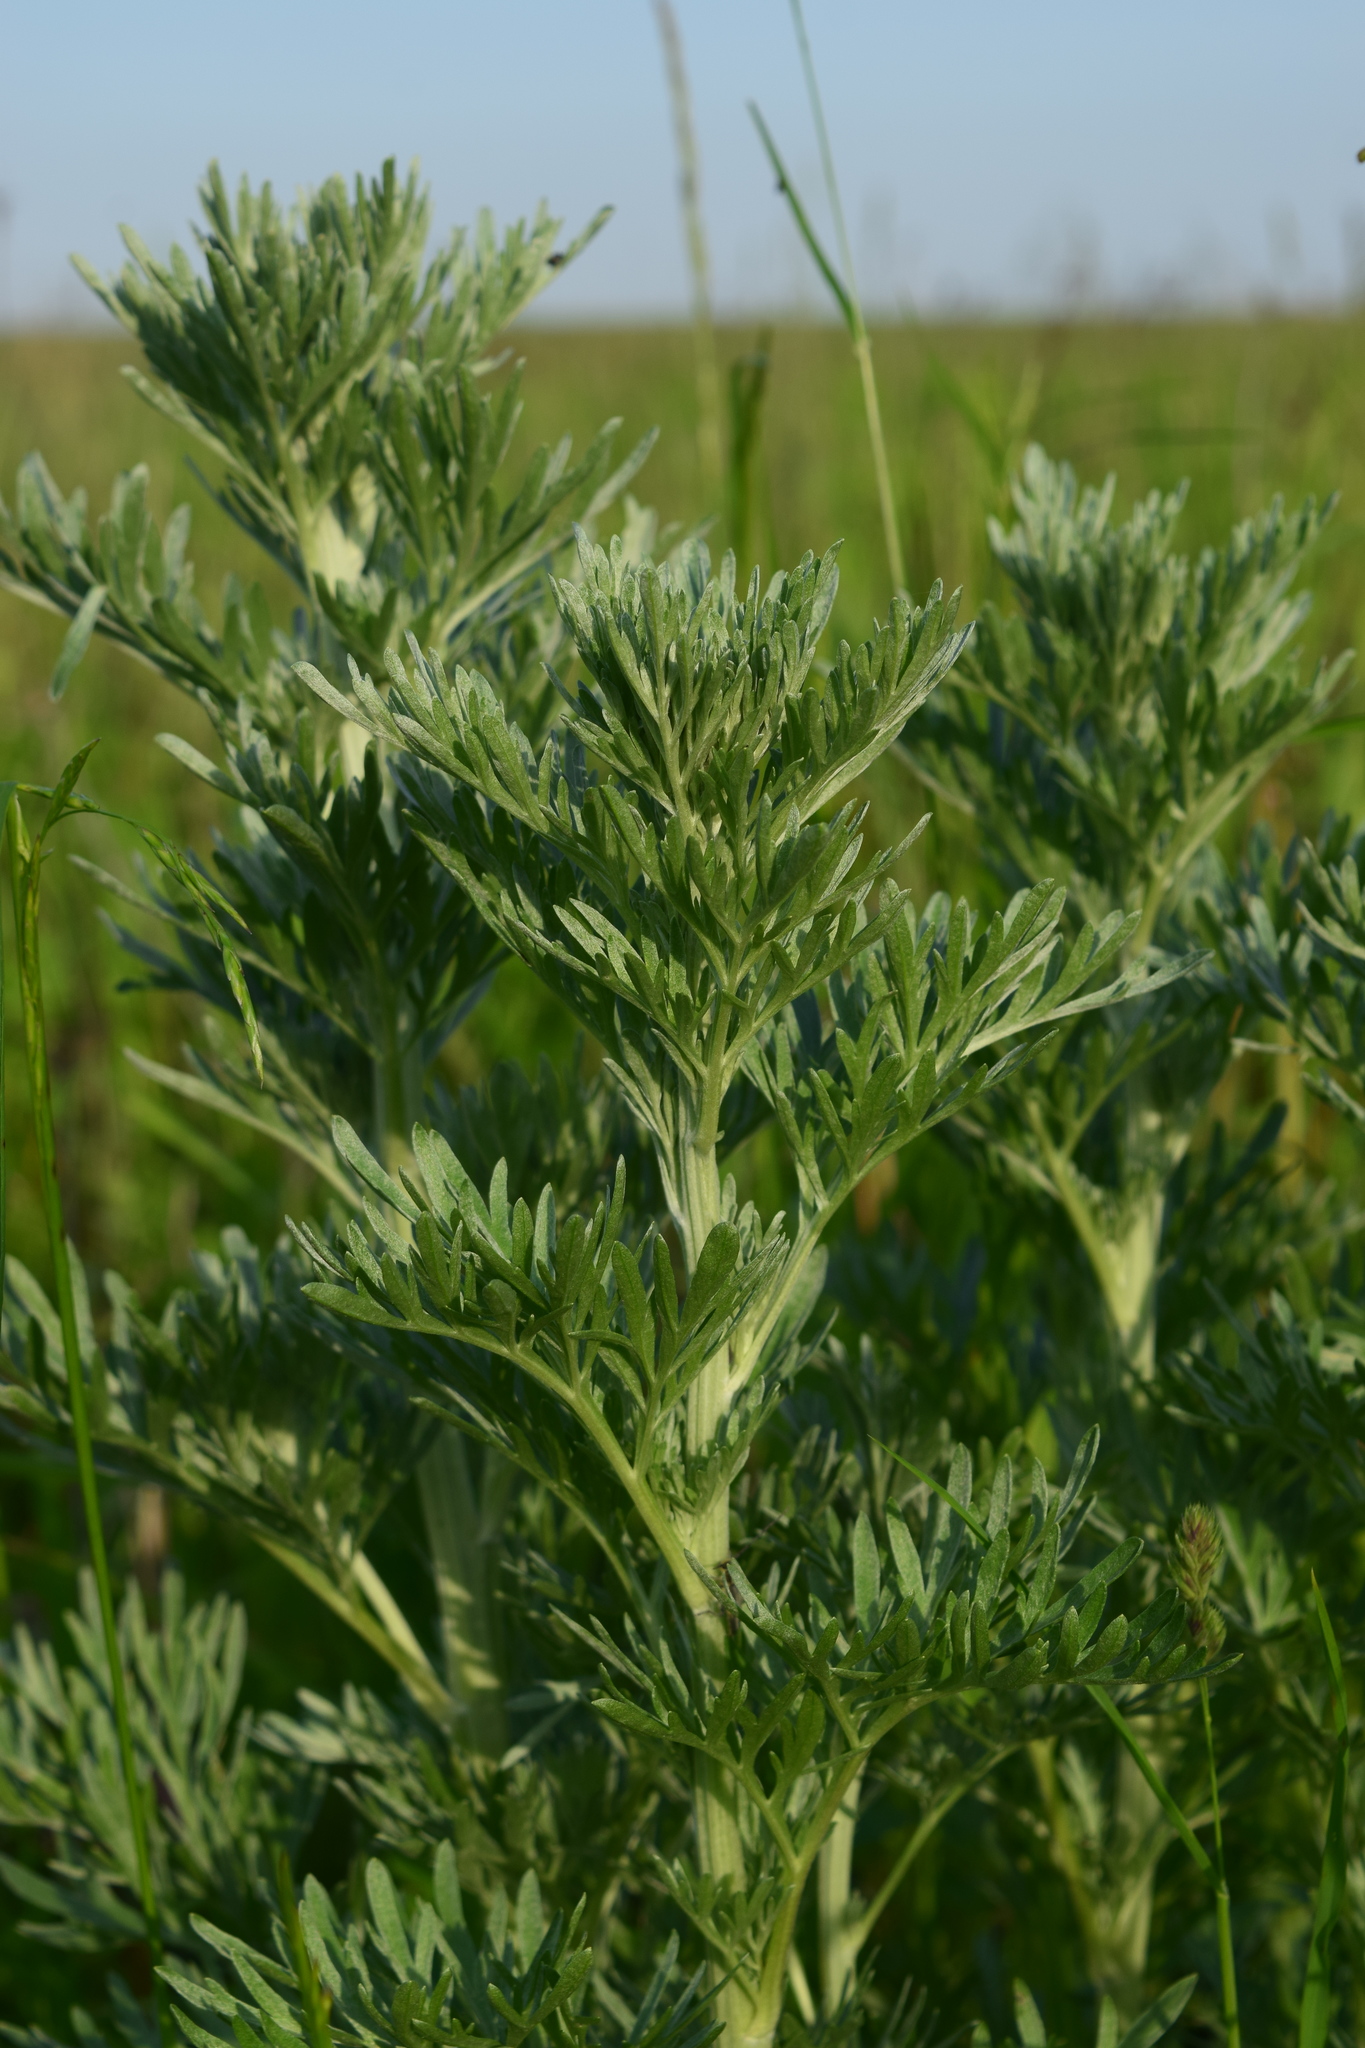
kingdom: Plantae
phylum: Tracheophyta
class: Magnoliopsida
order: Asterales
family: Asteraceae
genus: Artemisia
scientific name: Artemisia absinthium
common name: Wormwood
